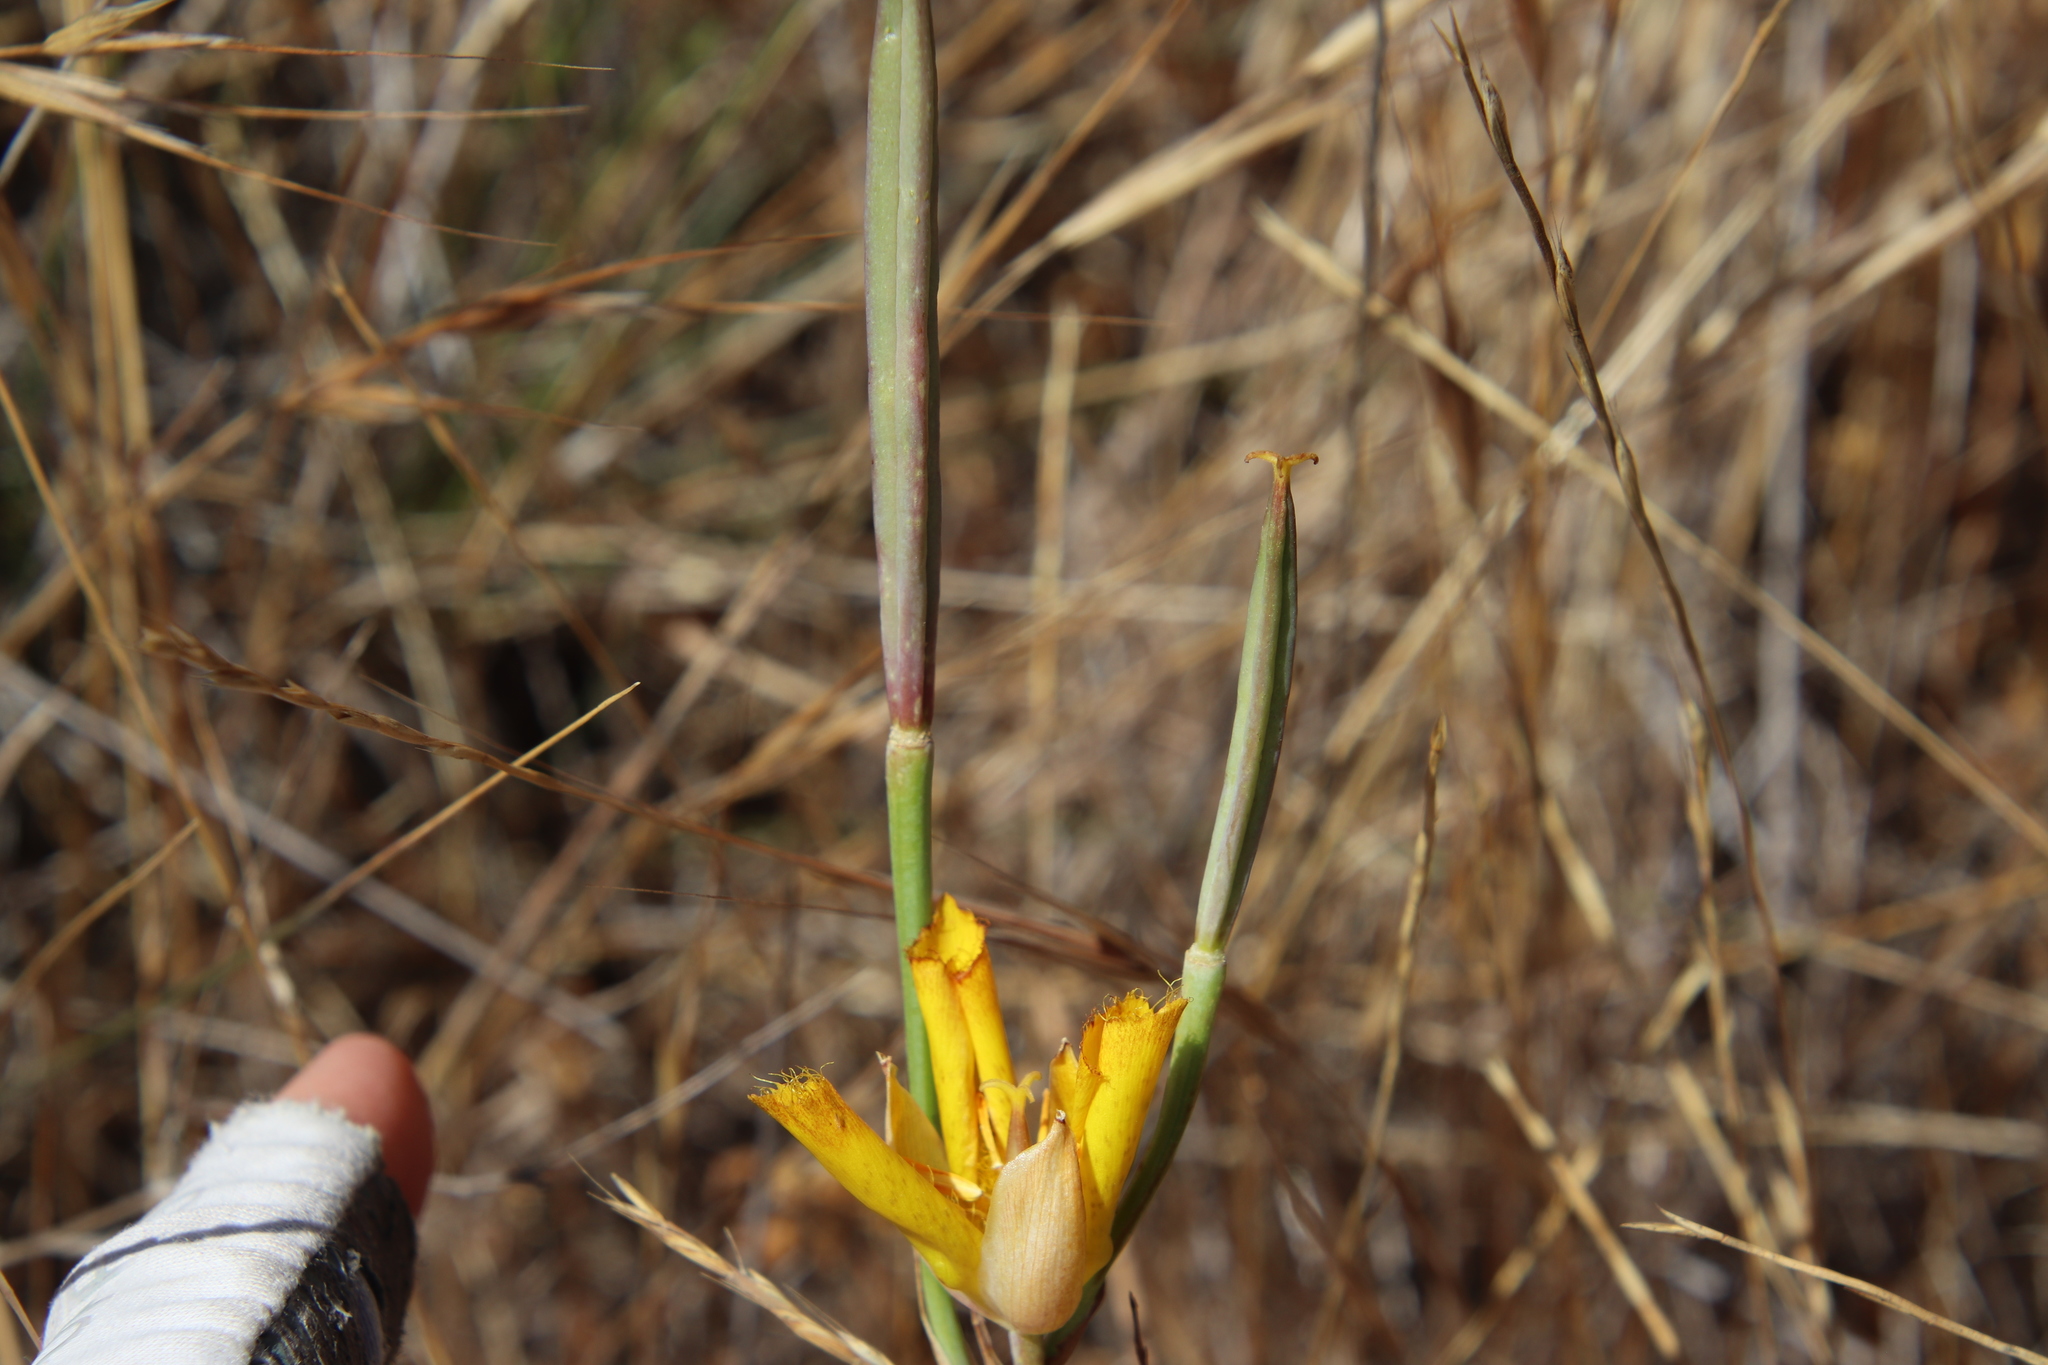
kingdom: Plantae
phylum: Tracheophyta
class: Liliopsida
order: Liliales
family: Liliaceae
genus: Calochortus
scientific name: Calochortus weedii
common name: Weed's mariposa-lily
